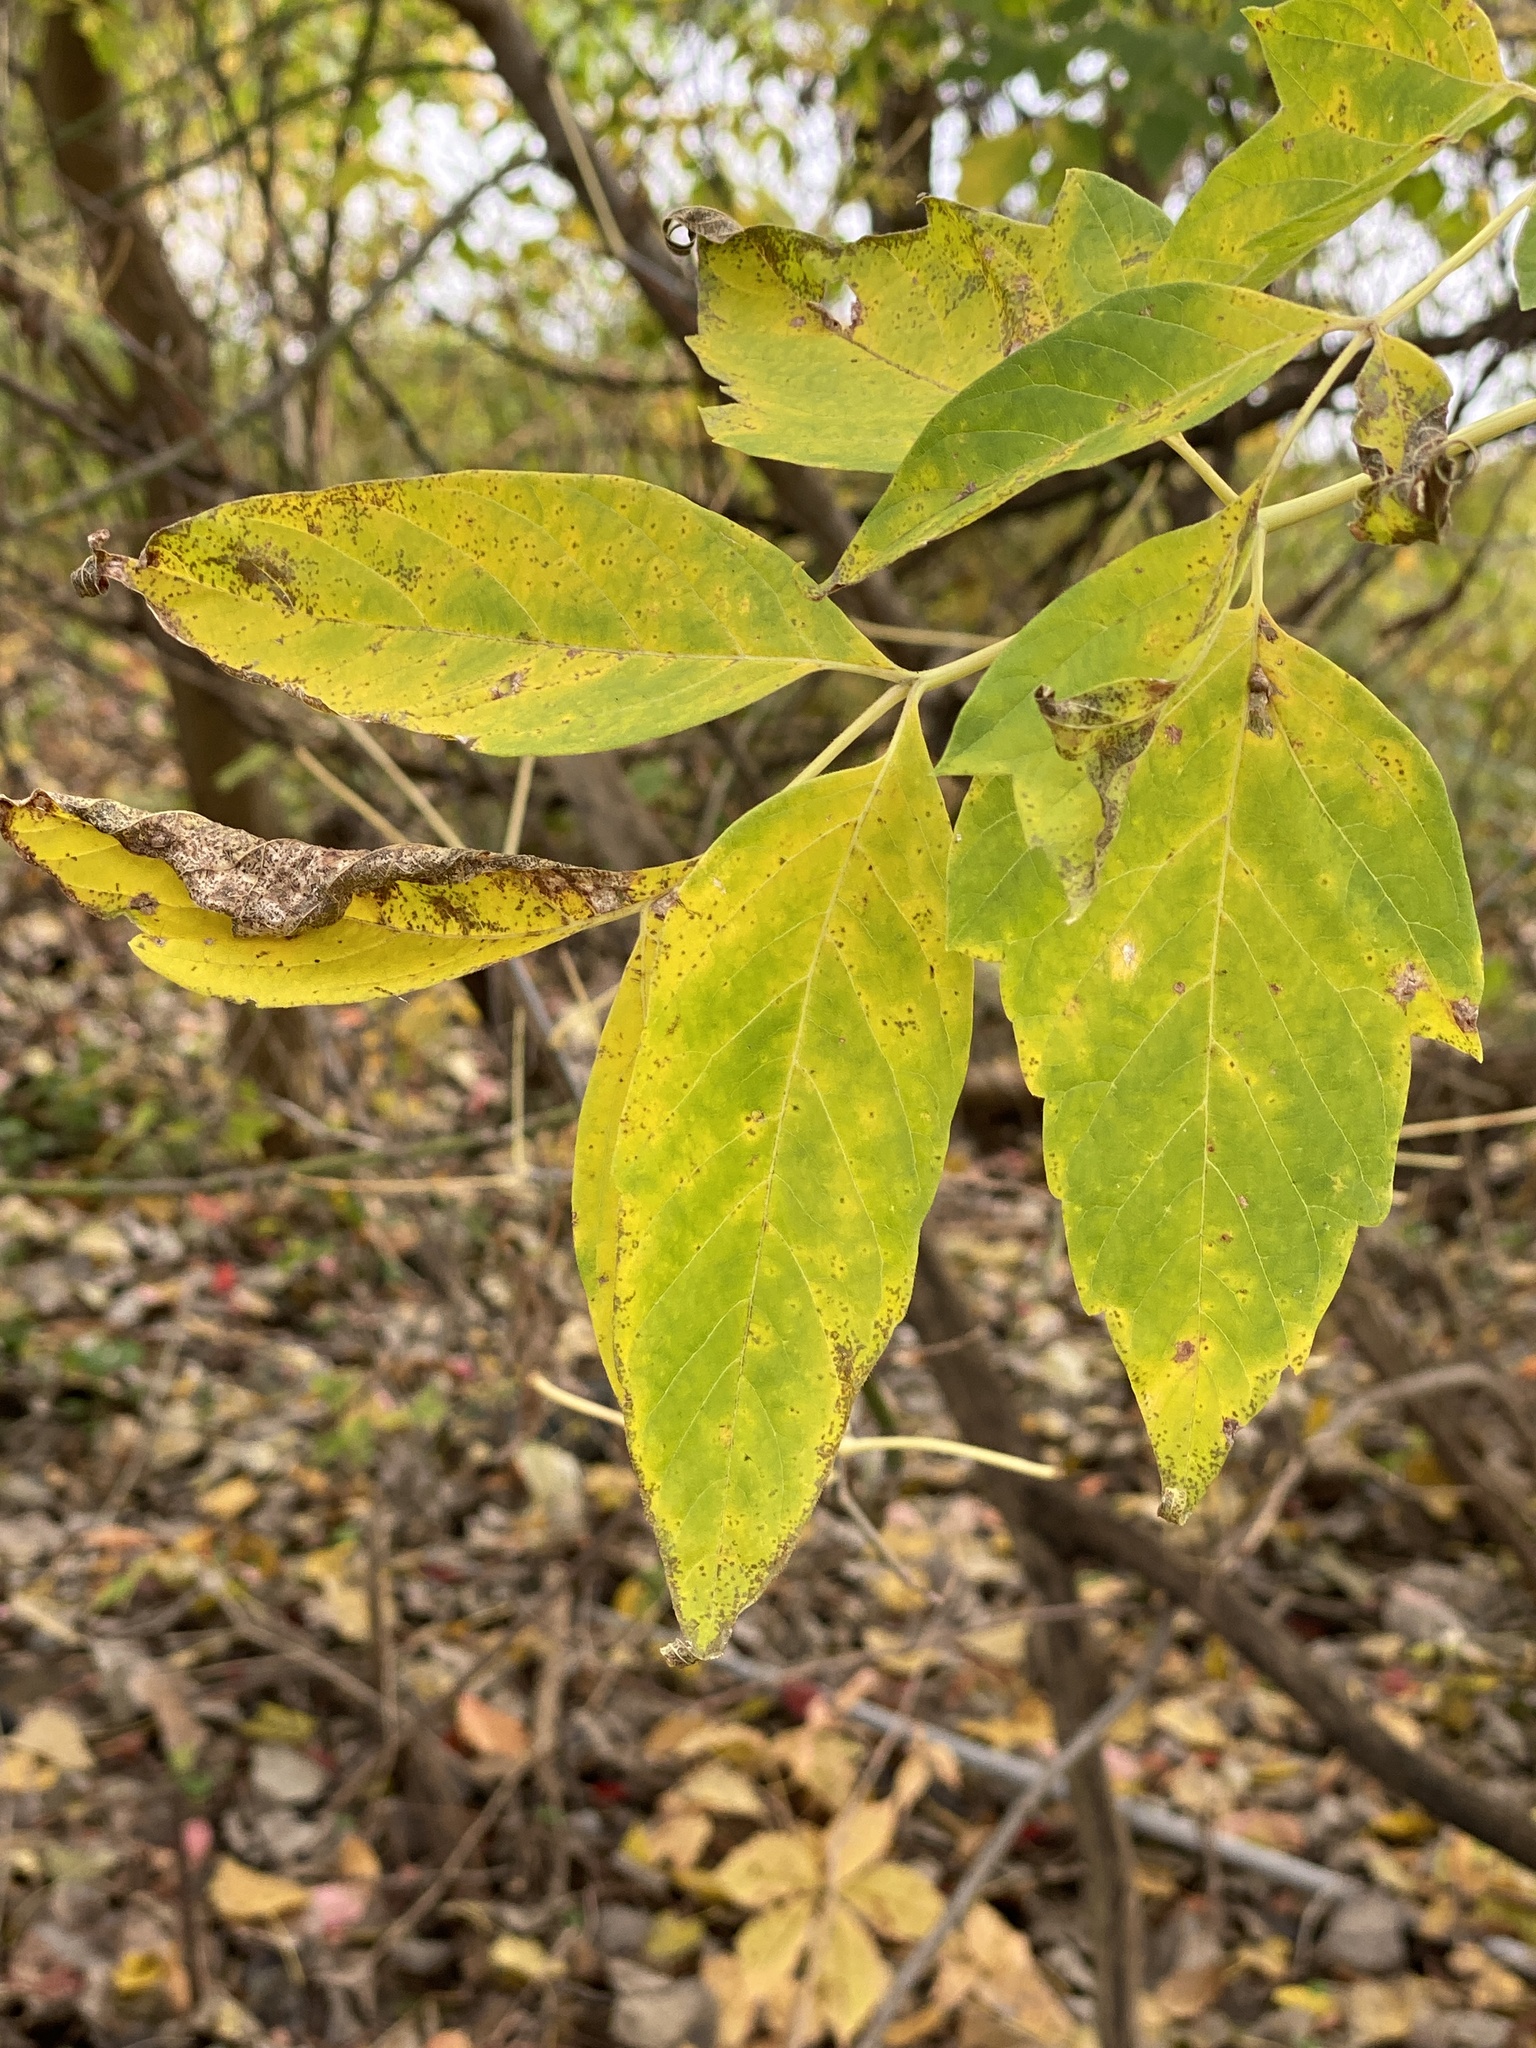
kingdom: Plantae
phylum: Tracheophyta
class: Magnoliopsida
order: Sapindales
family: Sapindaceae
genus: Acer
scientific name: Acer negundo
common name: Ashleaf maple
